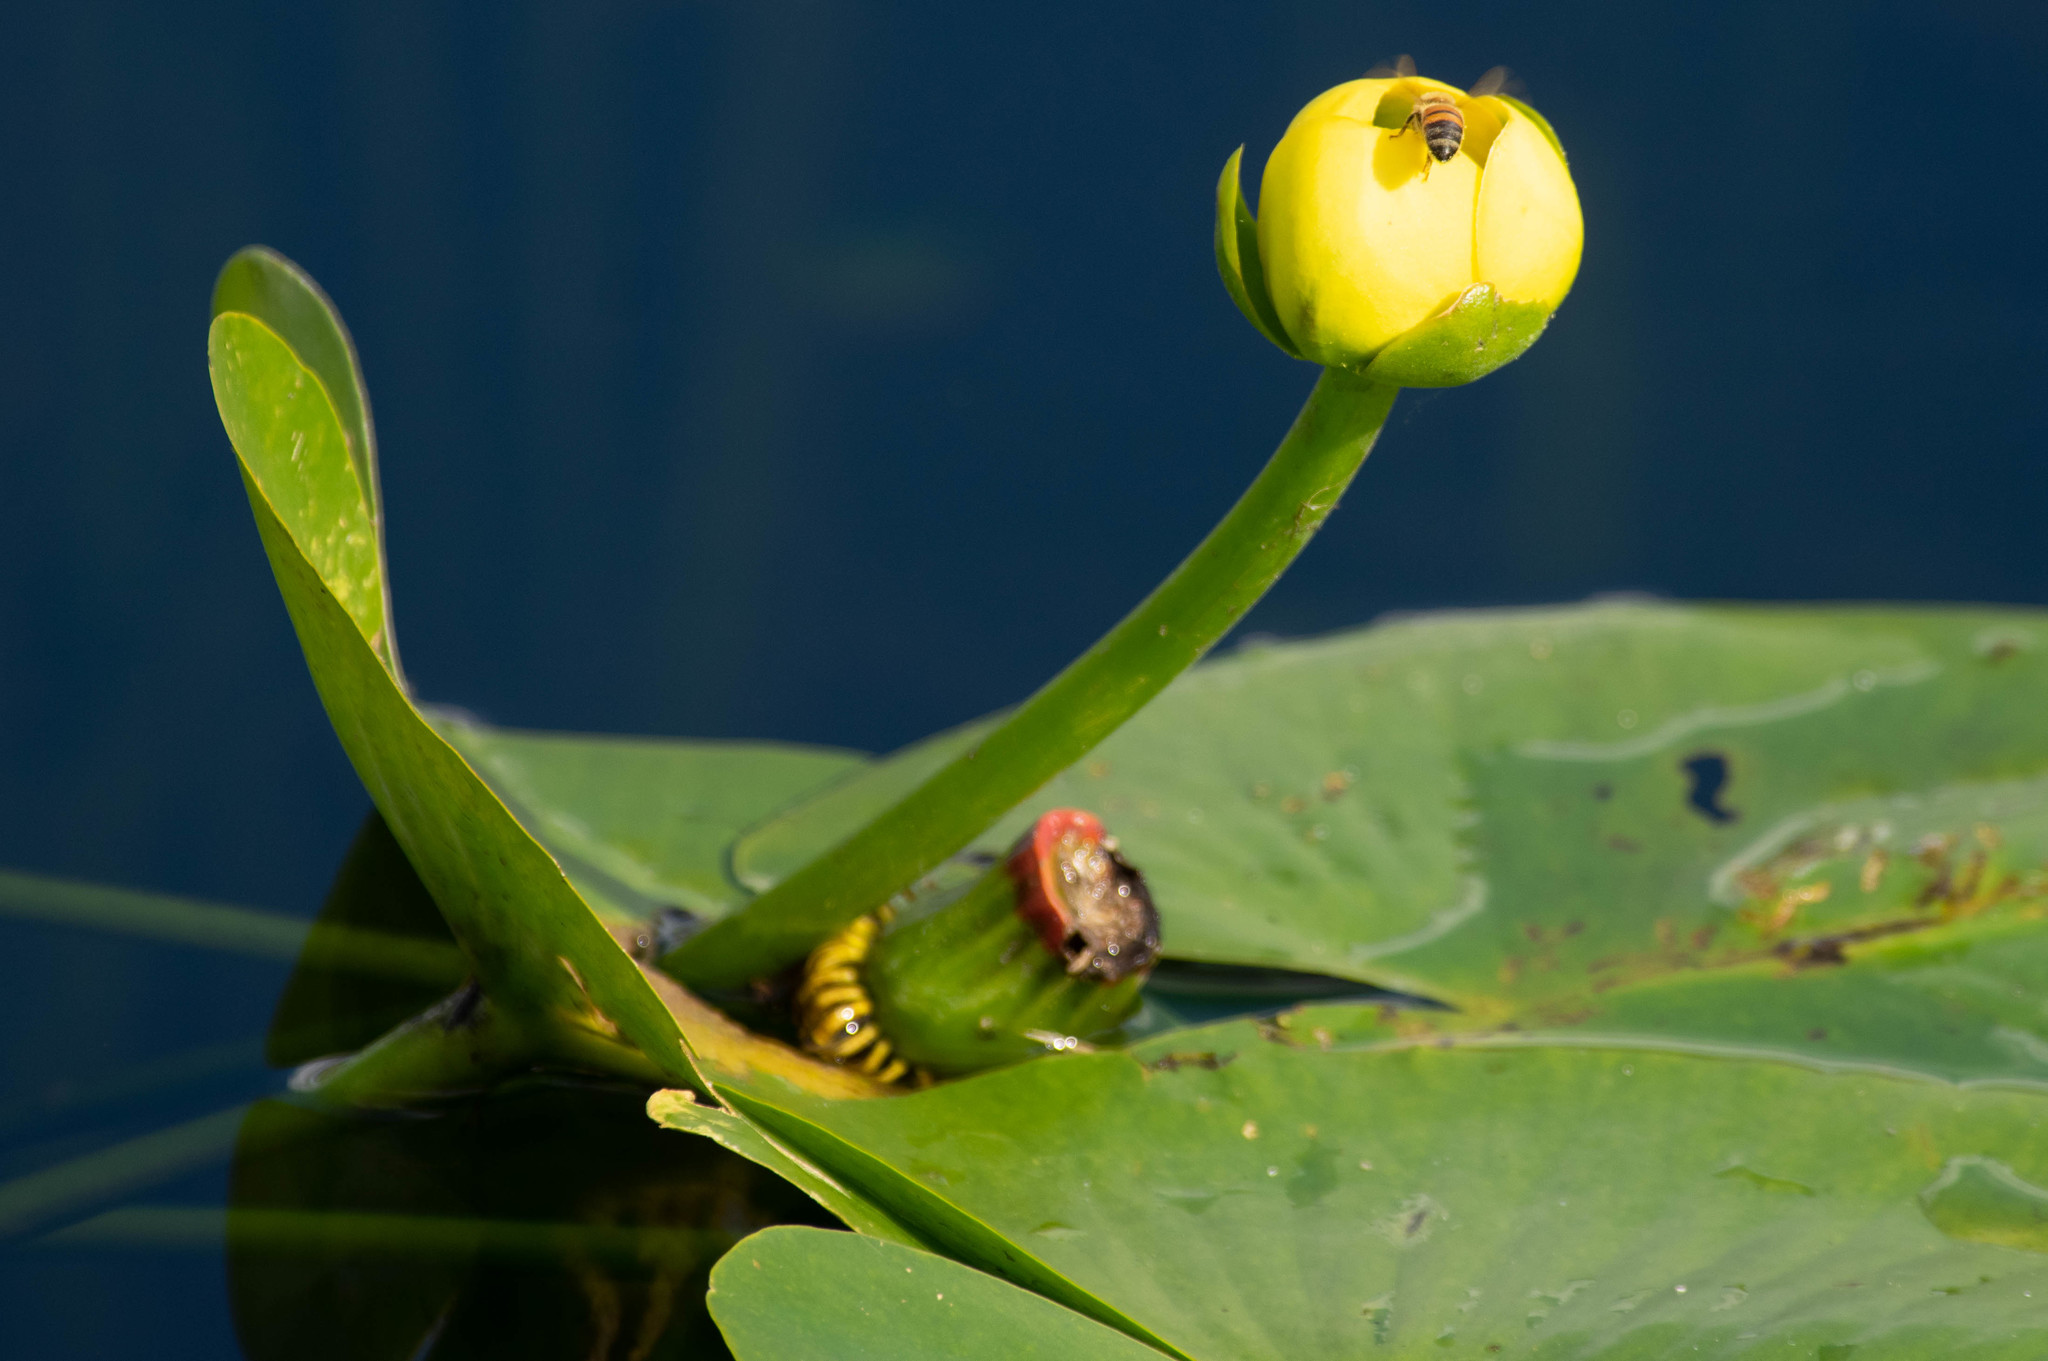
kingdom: Plantae
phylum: Tracheophyta
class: Magnoliopsida
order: Nymphaeales
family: Nymphaeaceae
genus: Nuphar
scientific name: Nuphar advena
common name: Spatter-dock
